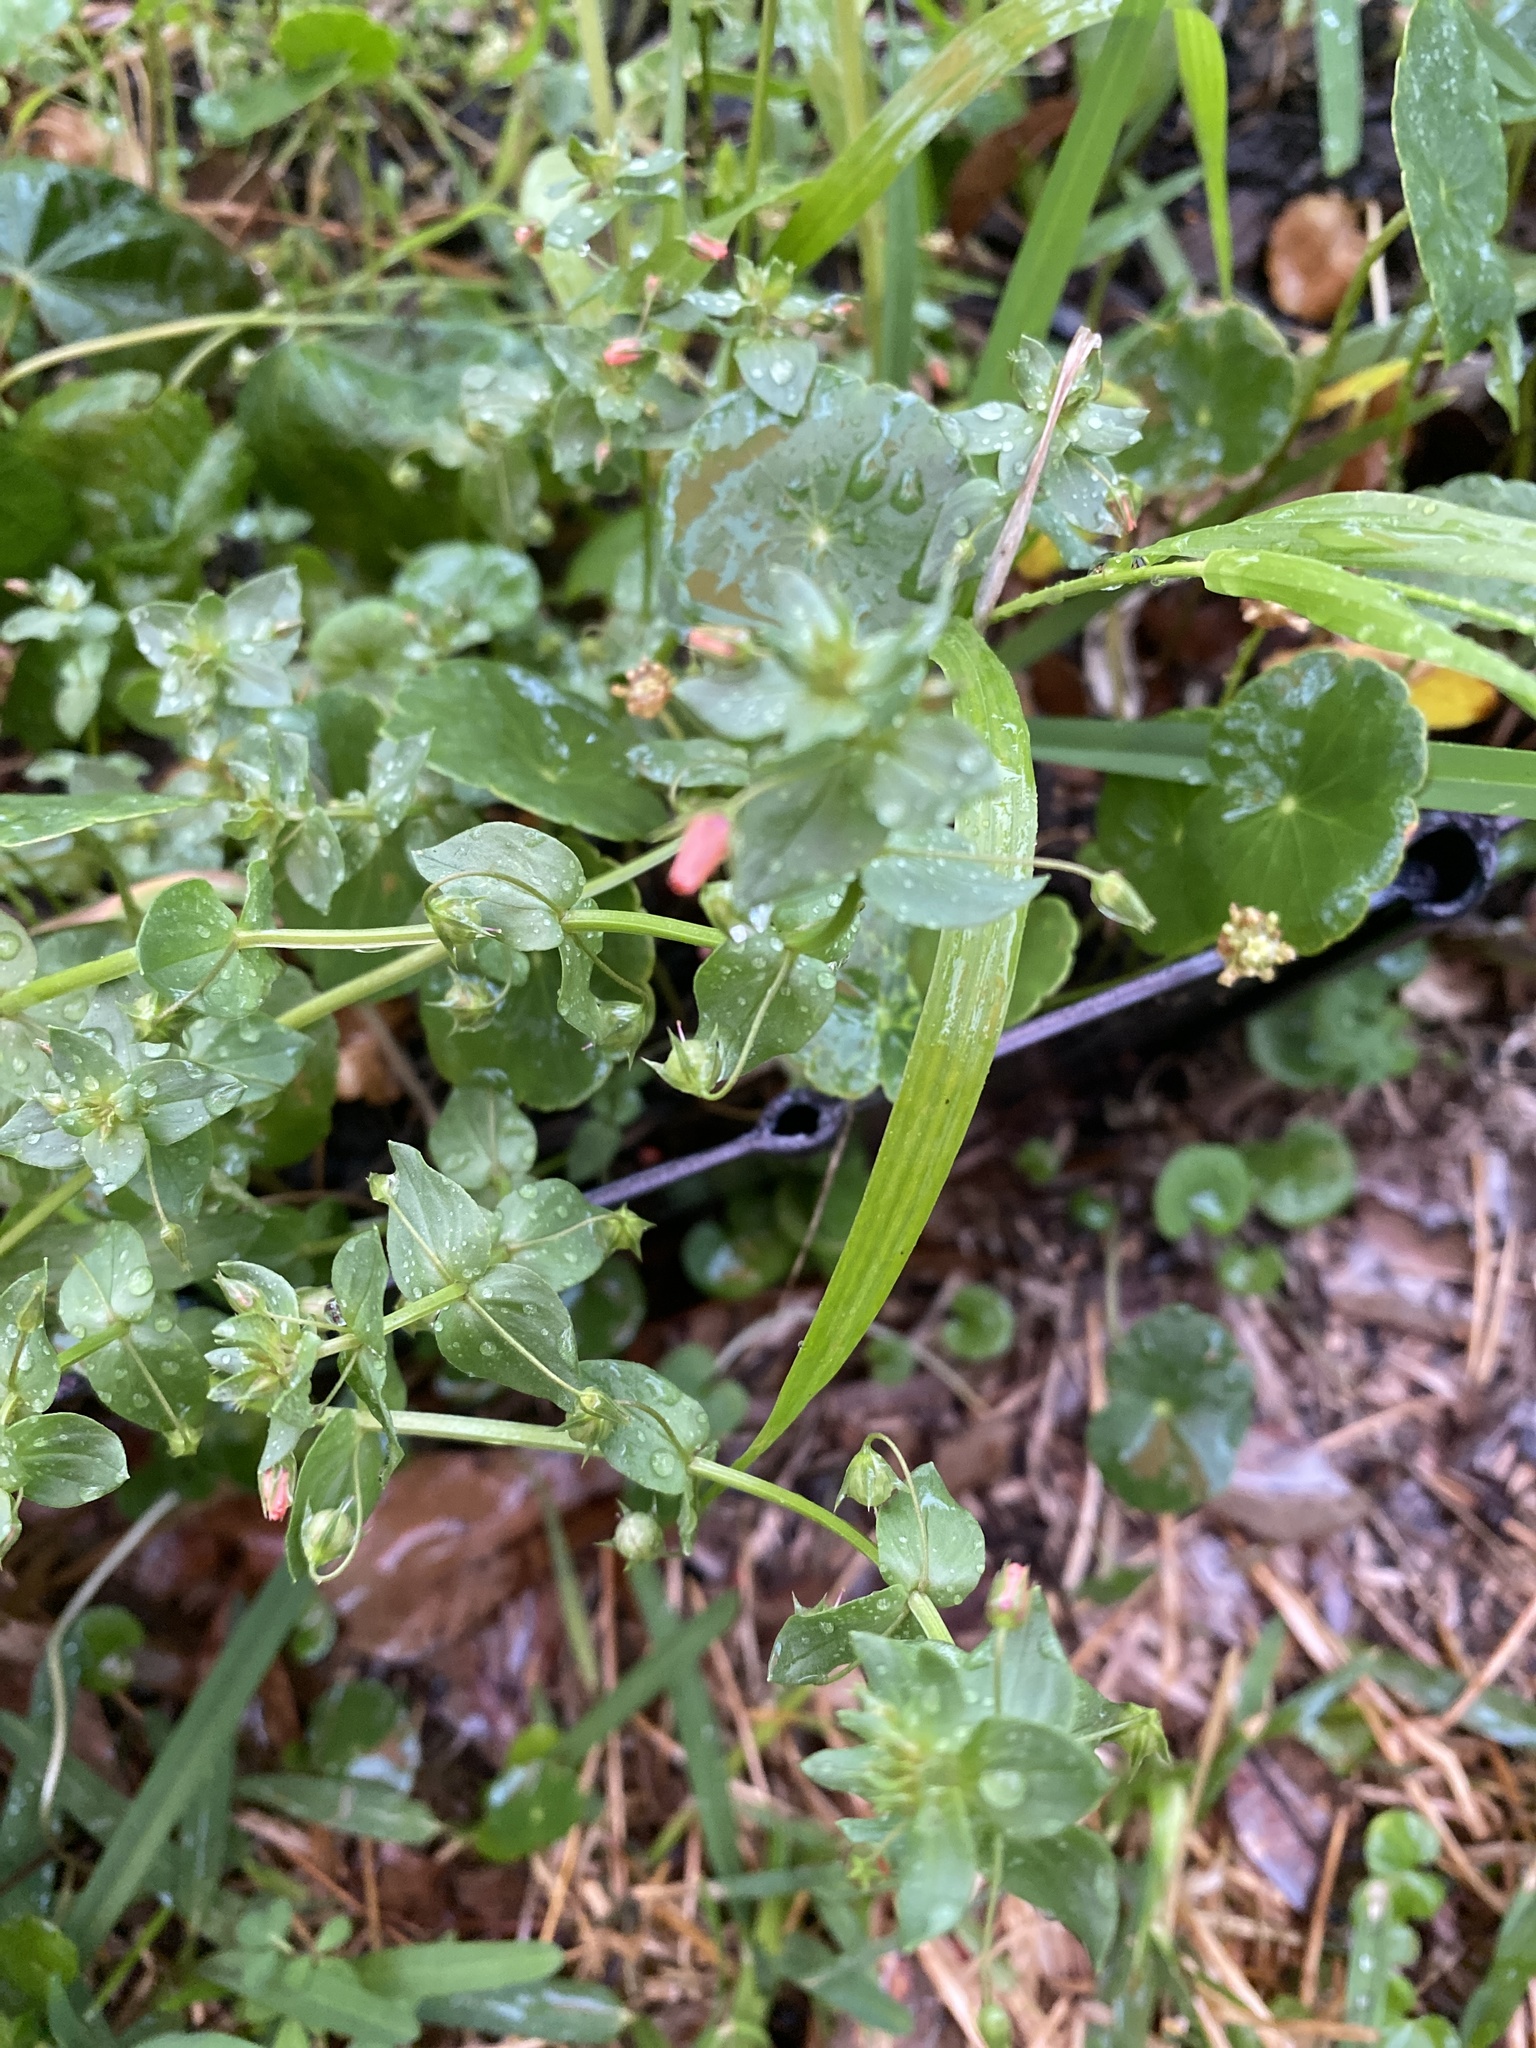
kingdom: Plantae
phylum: Tracheophyta
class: Magnoliopsida
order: Ericales
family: Primulaceae
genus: Lysimachia
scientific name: Lysimachia arvensis
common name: Scarlet pimpernel
